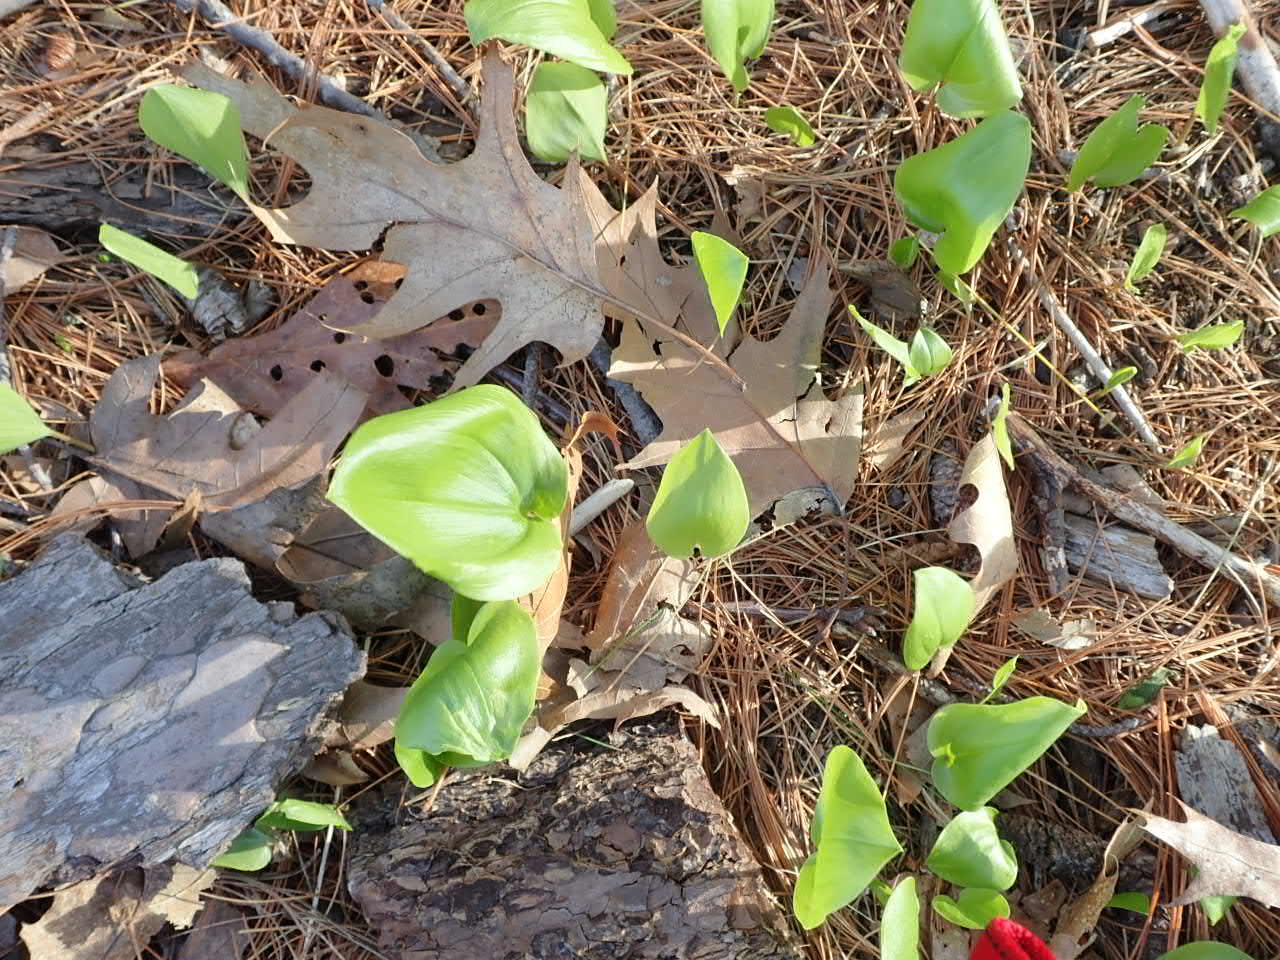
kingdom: Plantae
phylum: Tracheophyta
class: Liliopsida
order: Asparagales
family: Asparagaceae
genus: Maianthemum
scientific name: Maianthemum canadense
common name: False lily-of-the-valley
